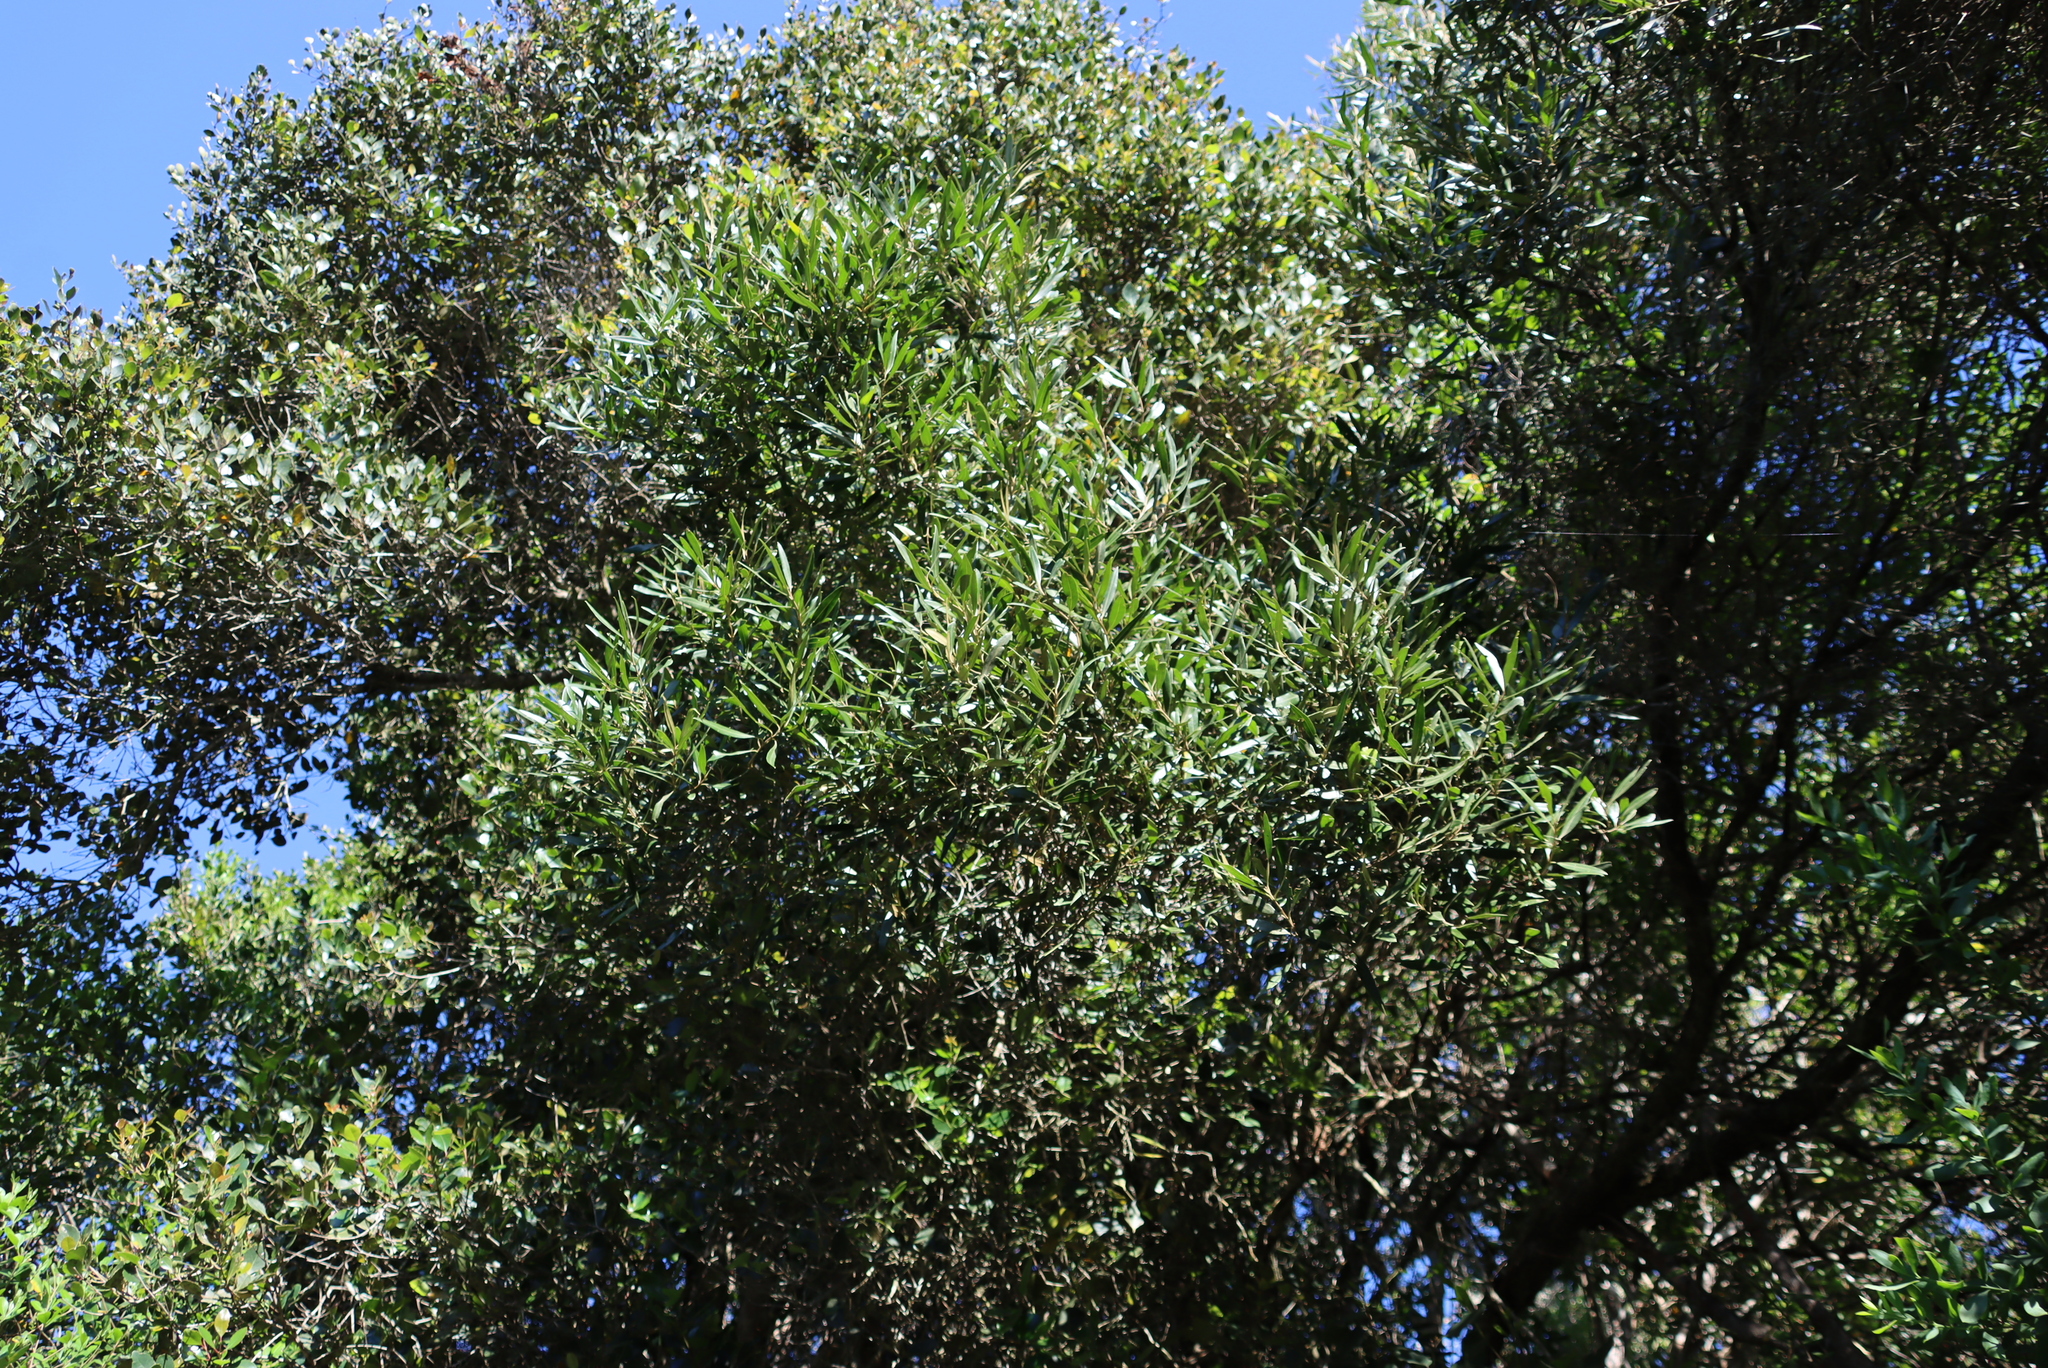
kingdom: Plantae
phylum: Tracheophyta
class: Magnoliopsida
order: Lamiales
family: Oleaceae
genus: Olea
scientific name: Olea europaea
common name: Olive
